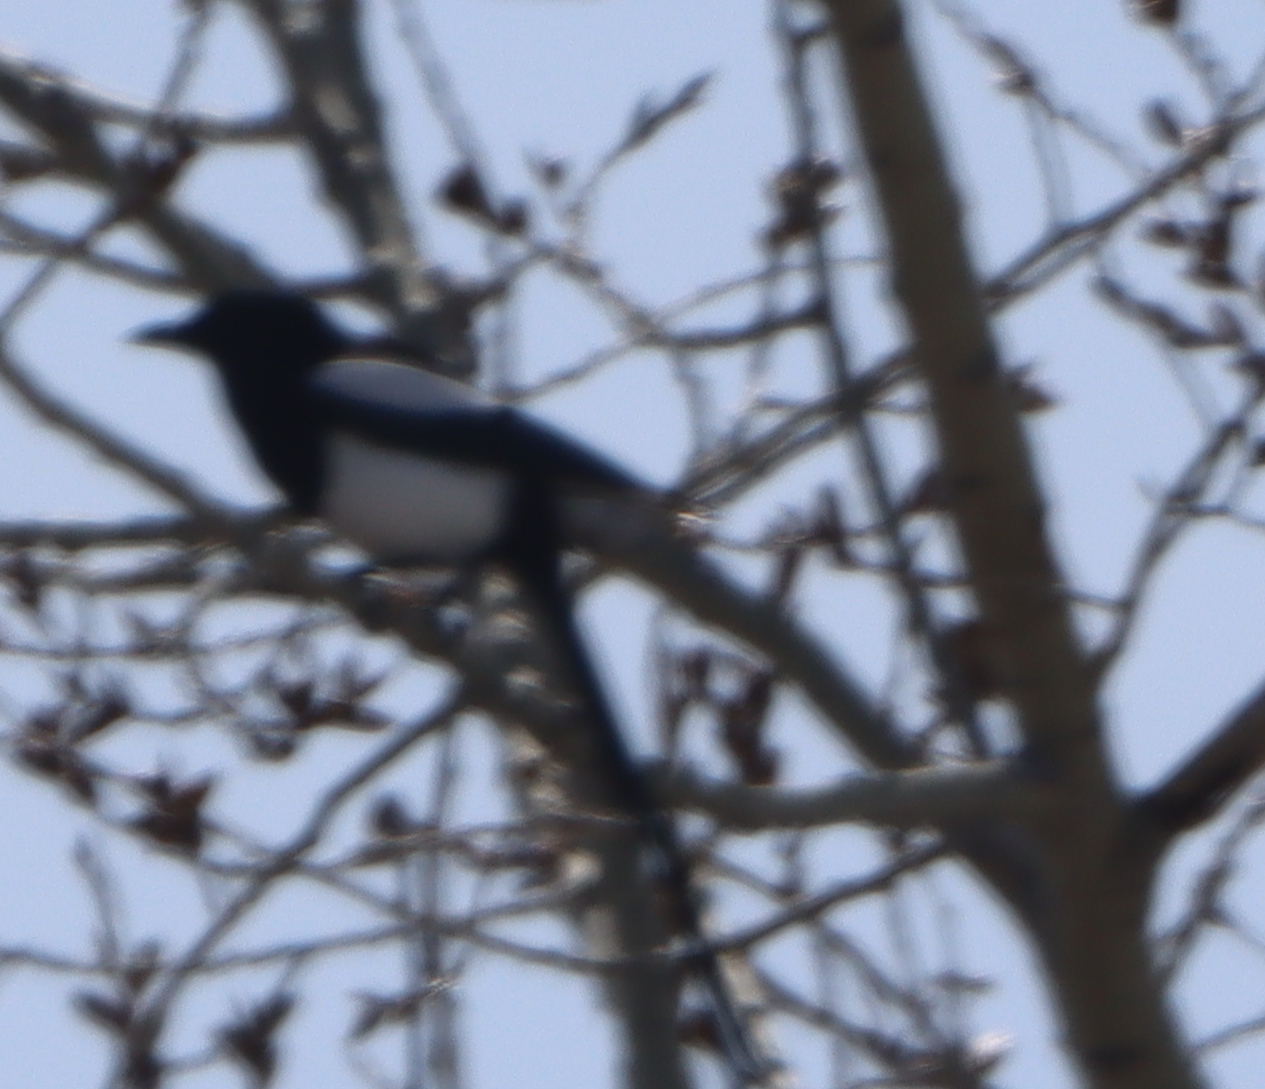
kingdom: Animalia
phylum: Chordata
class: Aves
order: Passeriformes
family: Corvidae
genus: Pica
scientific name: Pica hudsonia
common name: Black-billed magpie
